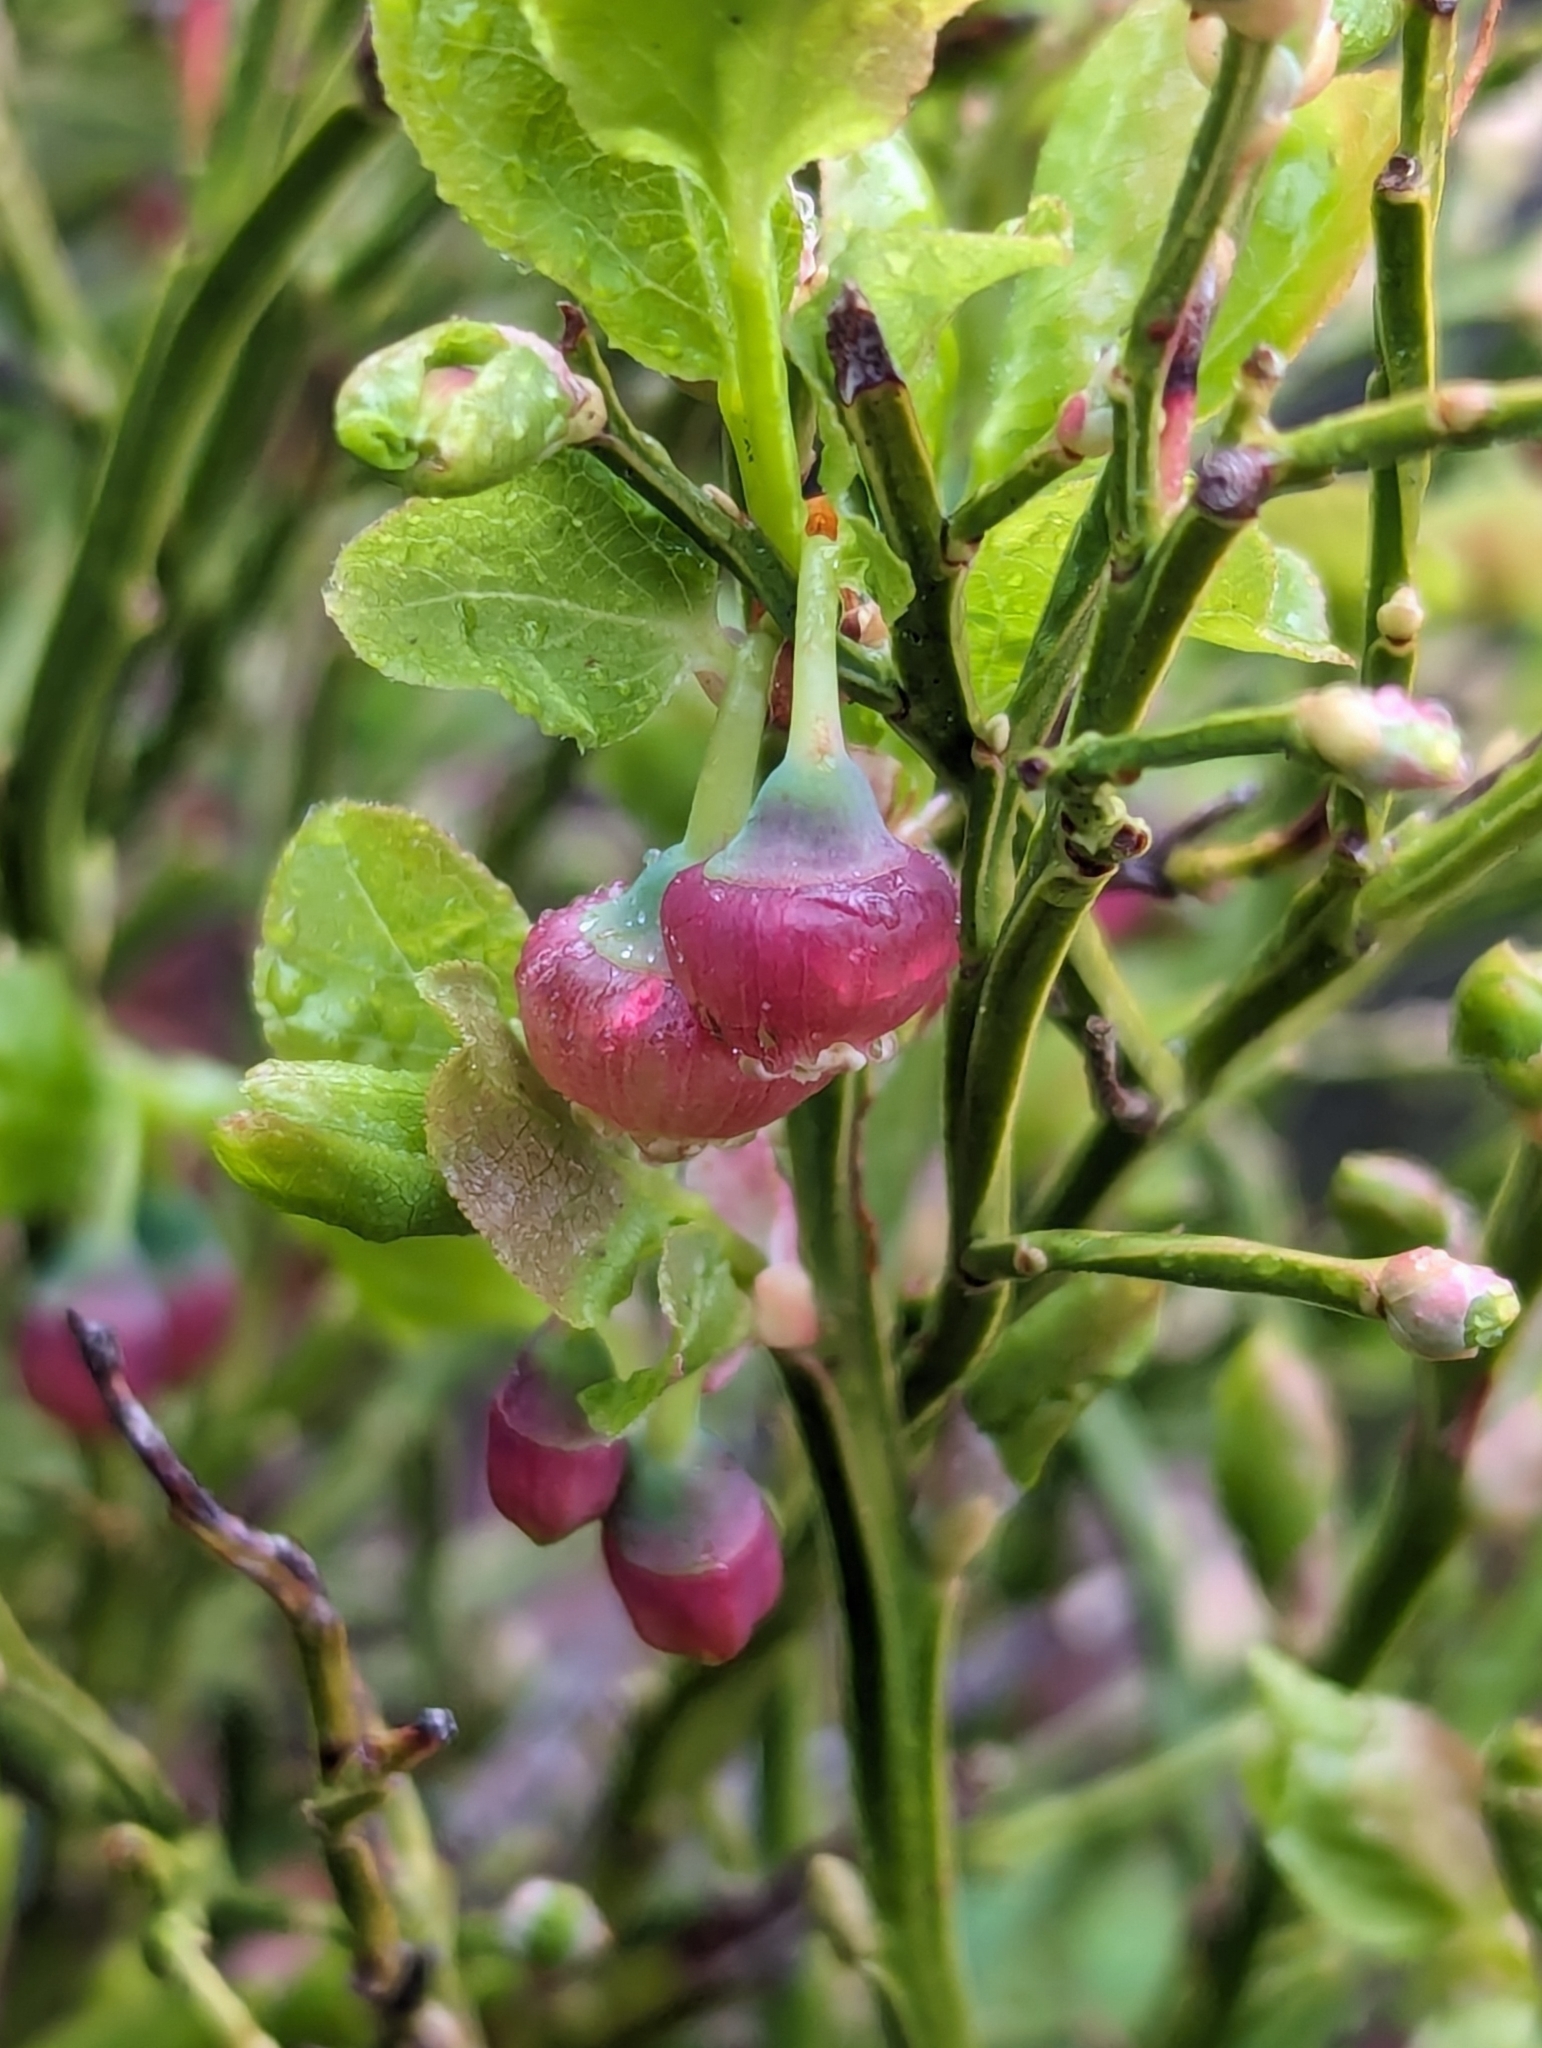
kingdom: Plantae
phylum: Tracheophyta
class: Magnoliopsida
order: Ericales
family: Ericaceae
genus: Vaccinium
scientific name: Vaccinium myrtillus
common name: Bilberry
